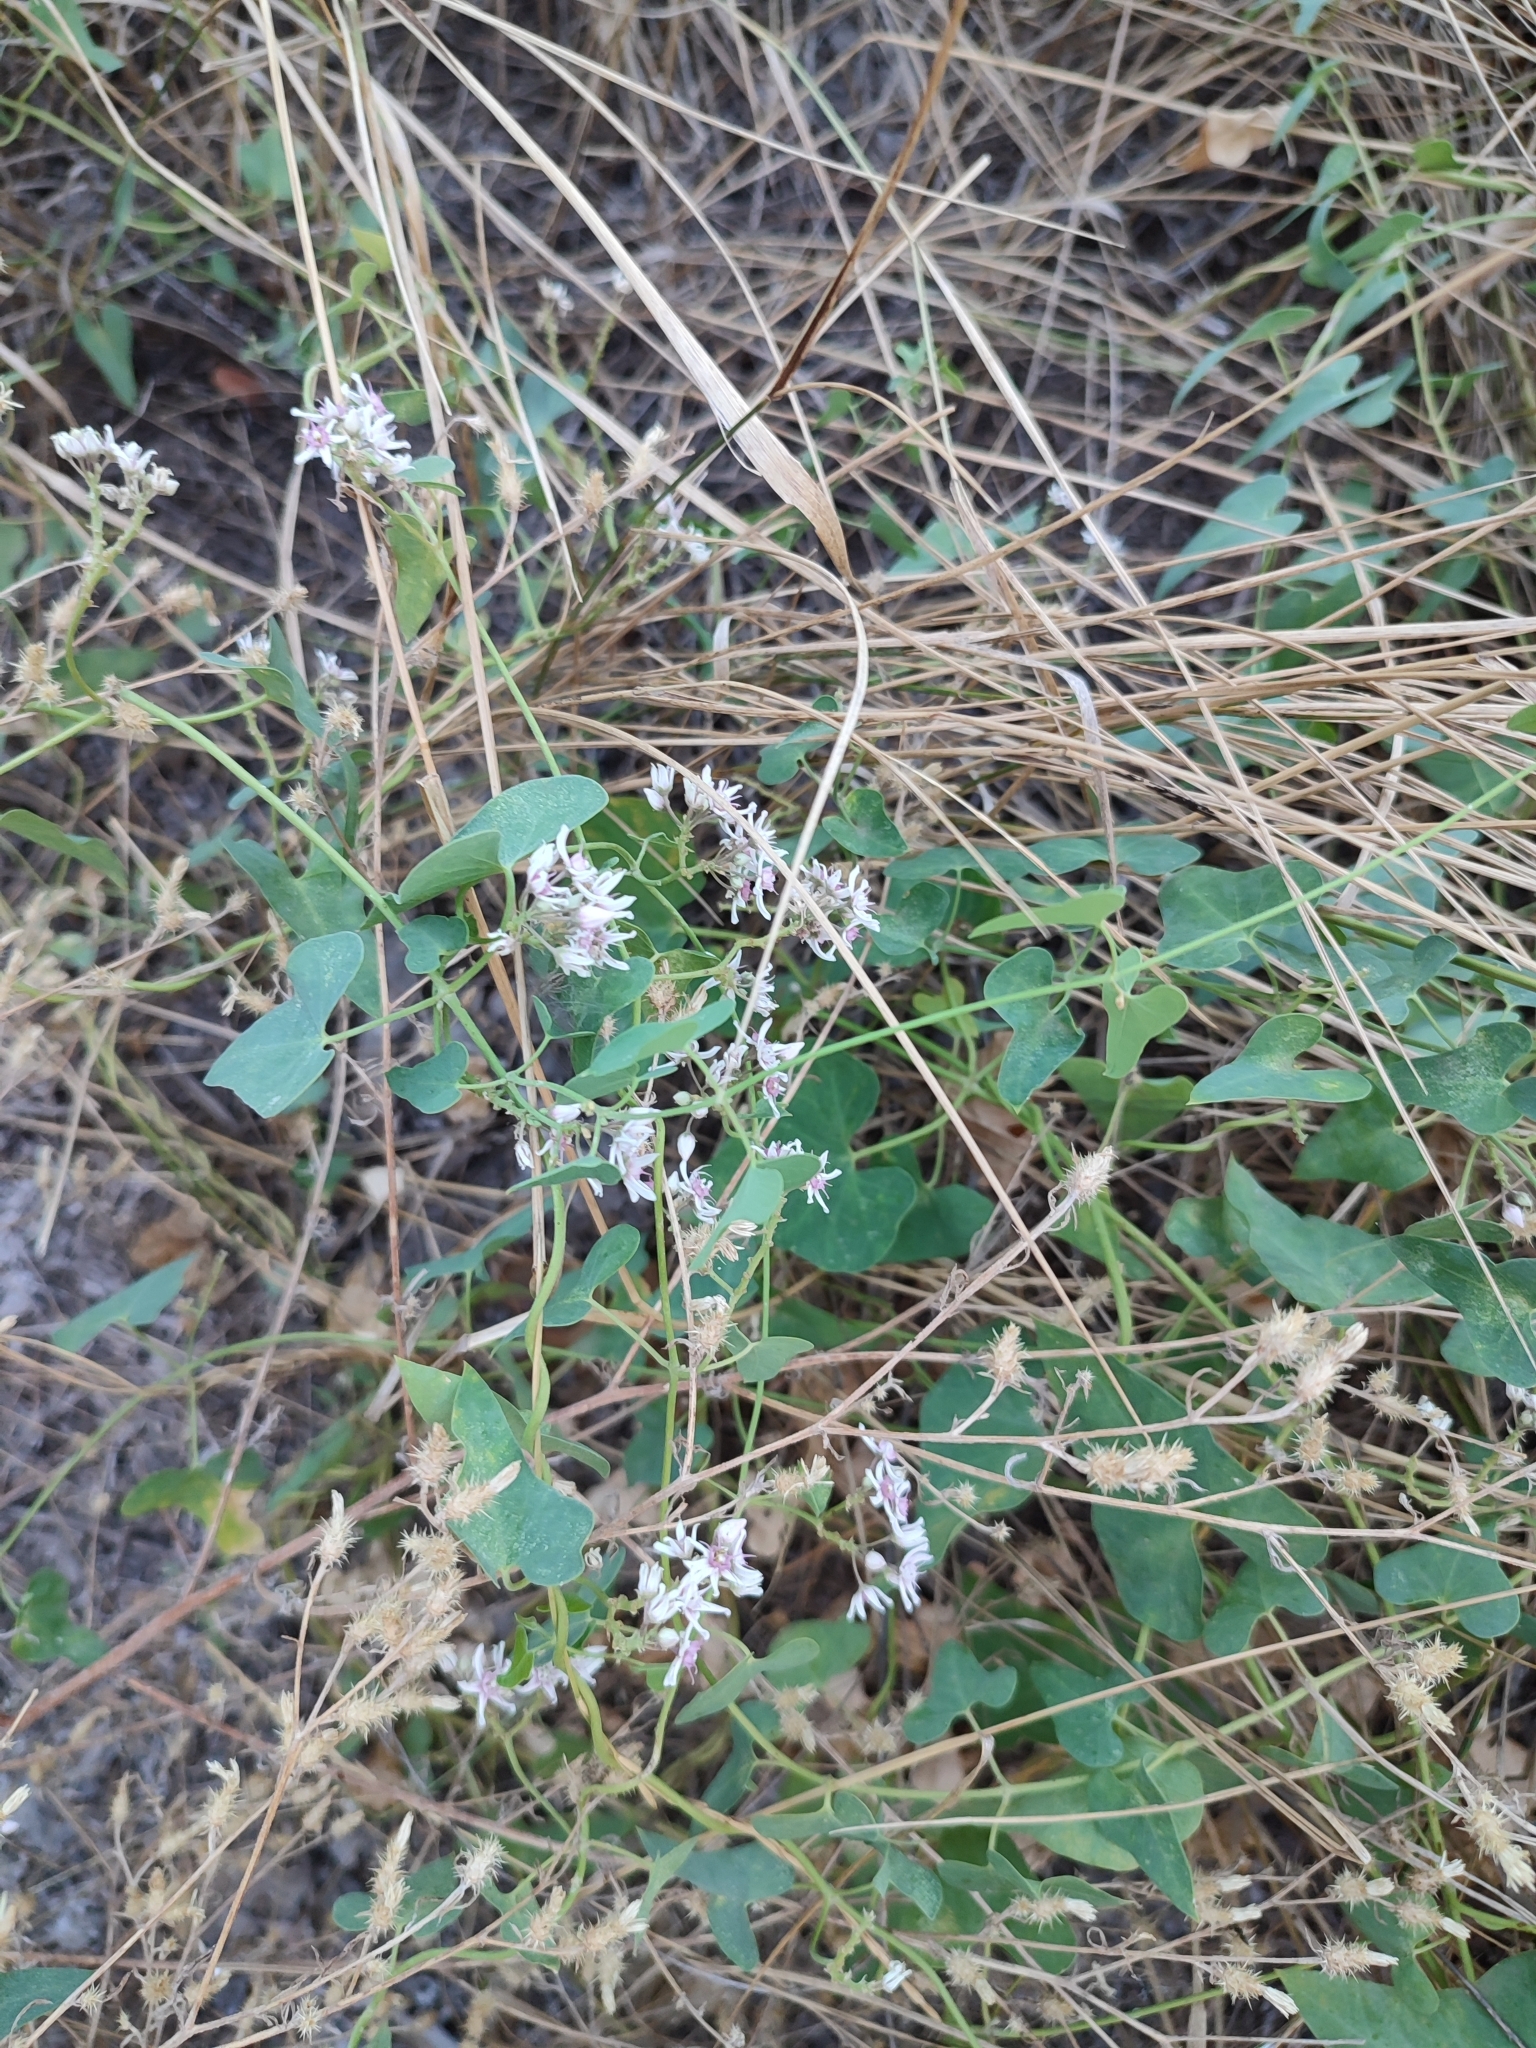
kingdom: Plantae
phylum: Tracheophyta
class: Magnoliopsida
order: Gentianales
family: Apocynaceae
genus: Cynanchum
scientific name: Cynanchum acutum
